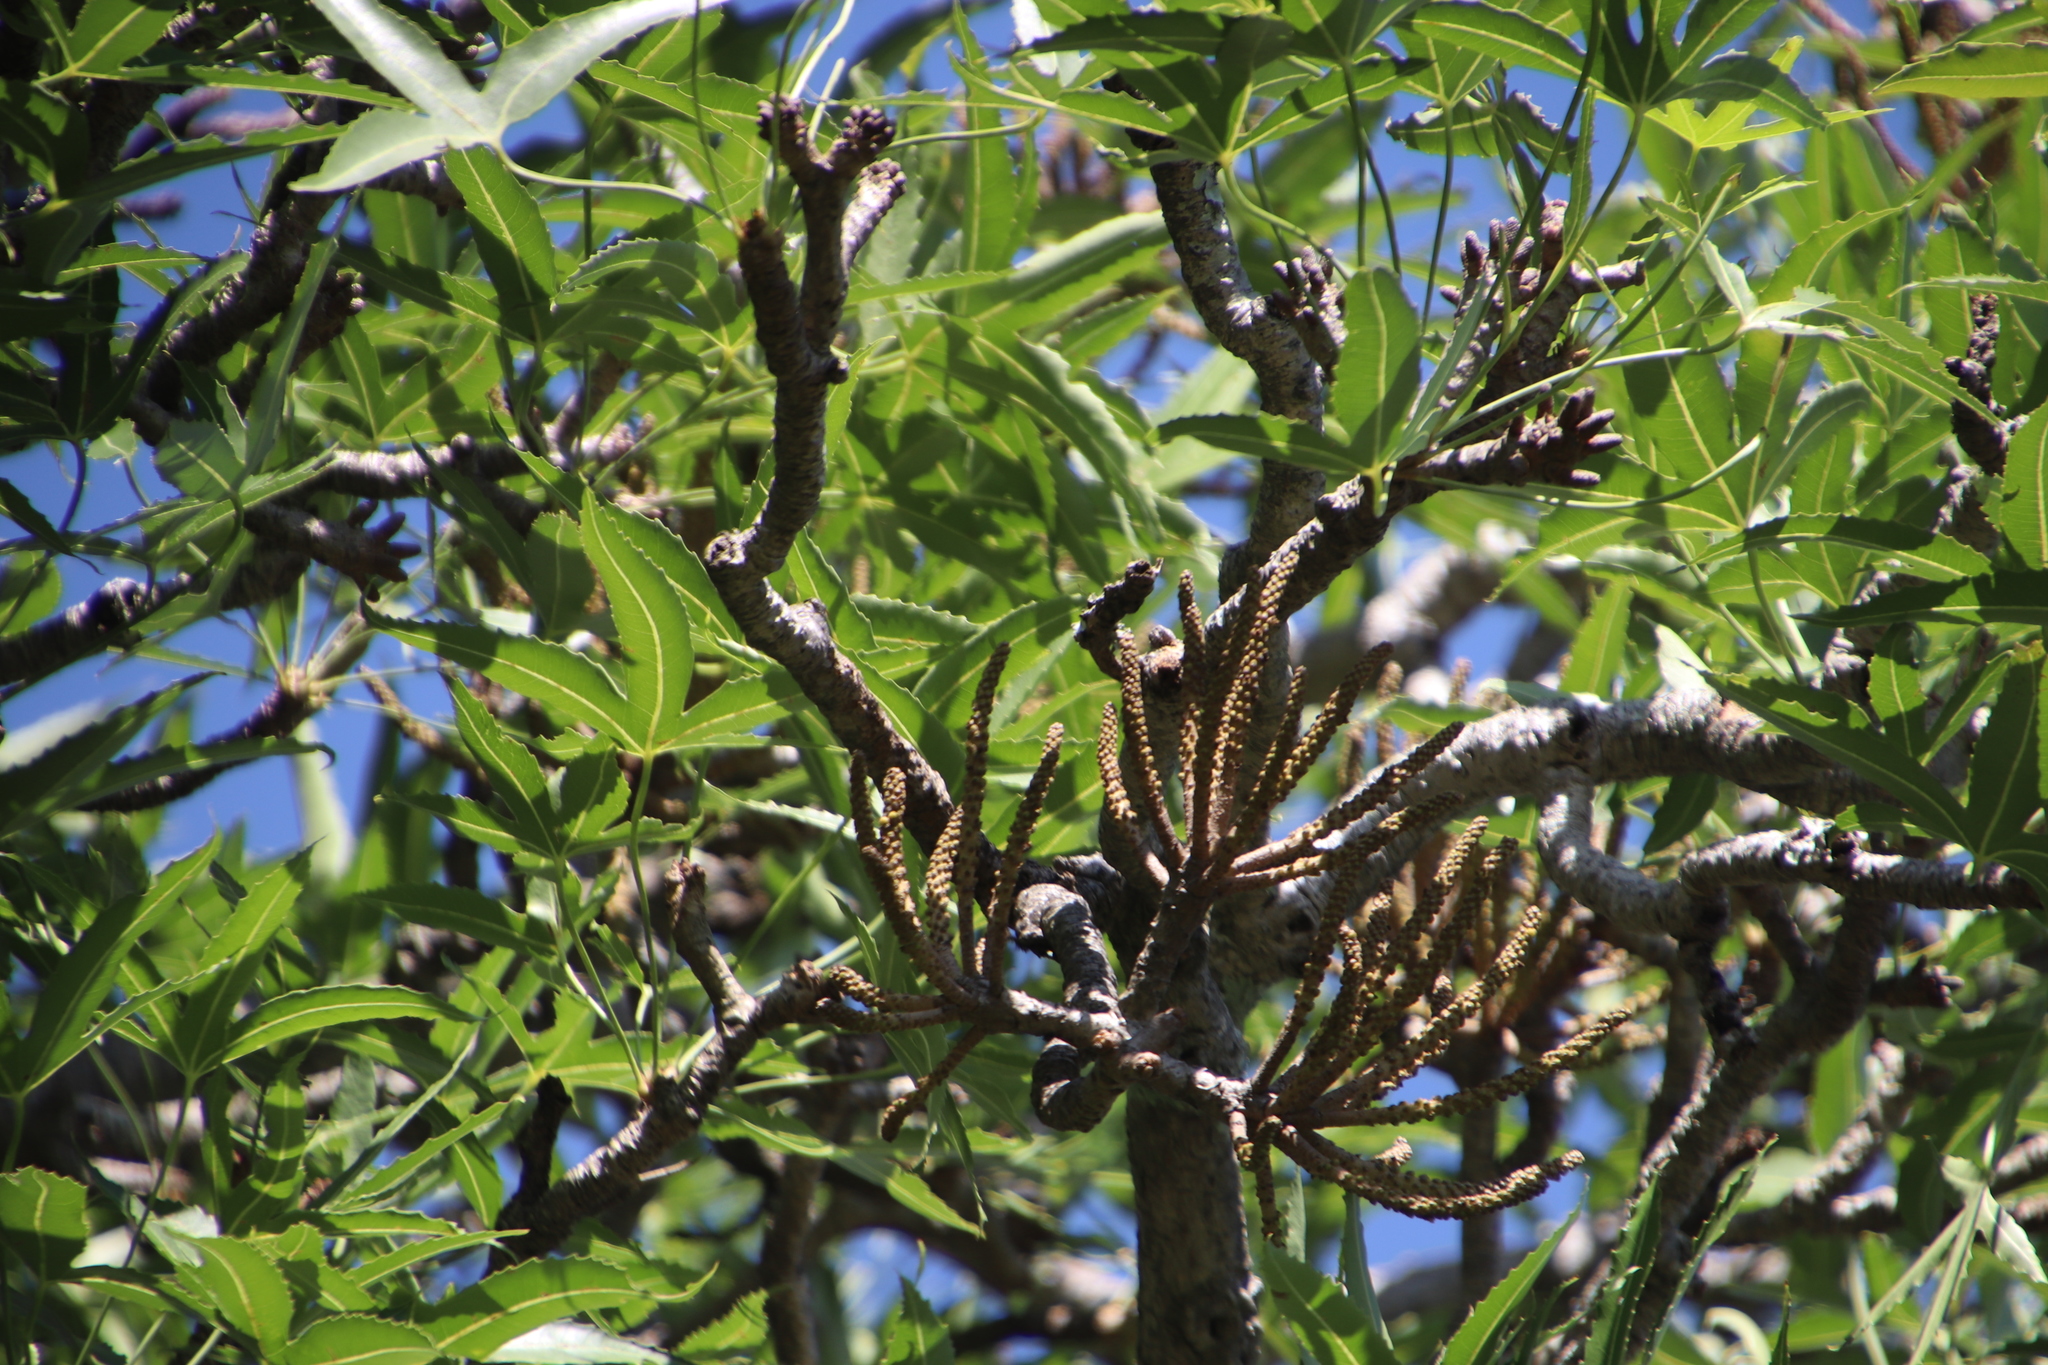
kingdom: Plantae
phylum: Tracheophyta
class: Magnoliopsida
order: Apiales
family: Araliaceae
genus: Cussonia
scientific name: Cussonia natalensis
